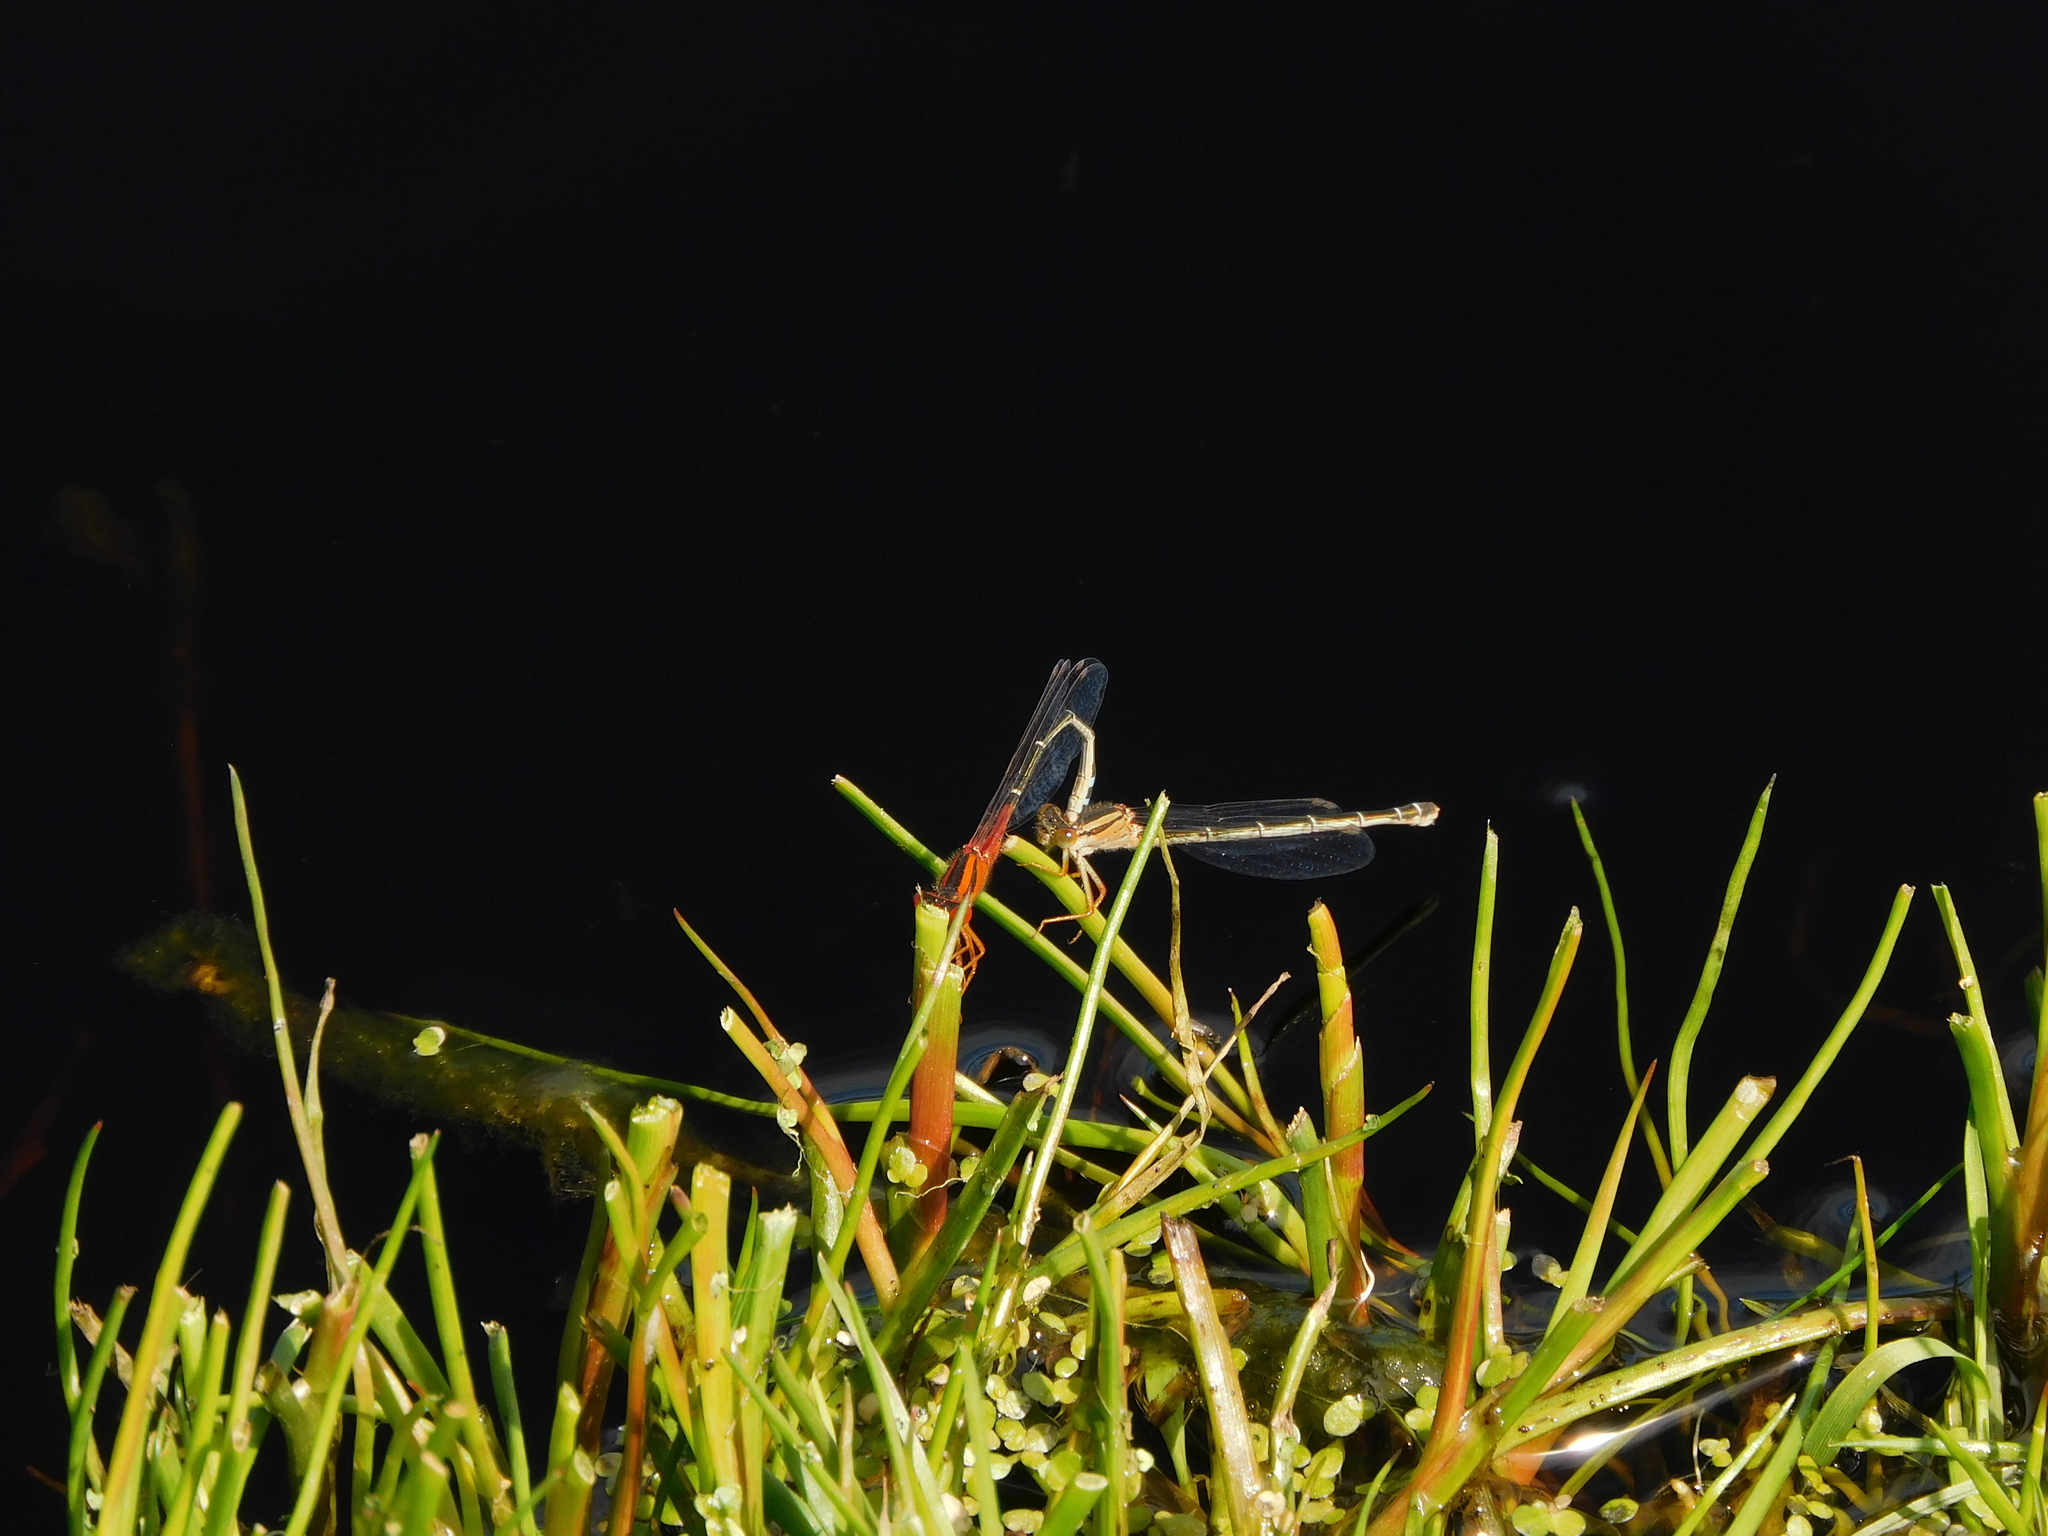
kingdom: Animalia
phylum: Arthropoda
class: Insecta
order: Odonata
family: Coenagrionidae
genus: Xanthagrion
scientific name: Xanthagrion erythroneurum
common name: Red and blue damsel
